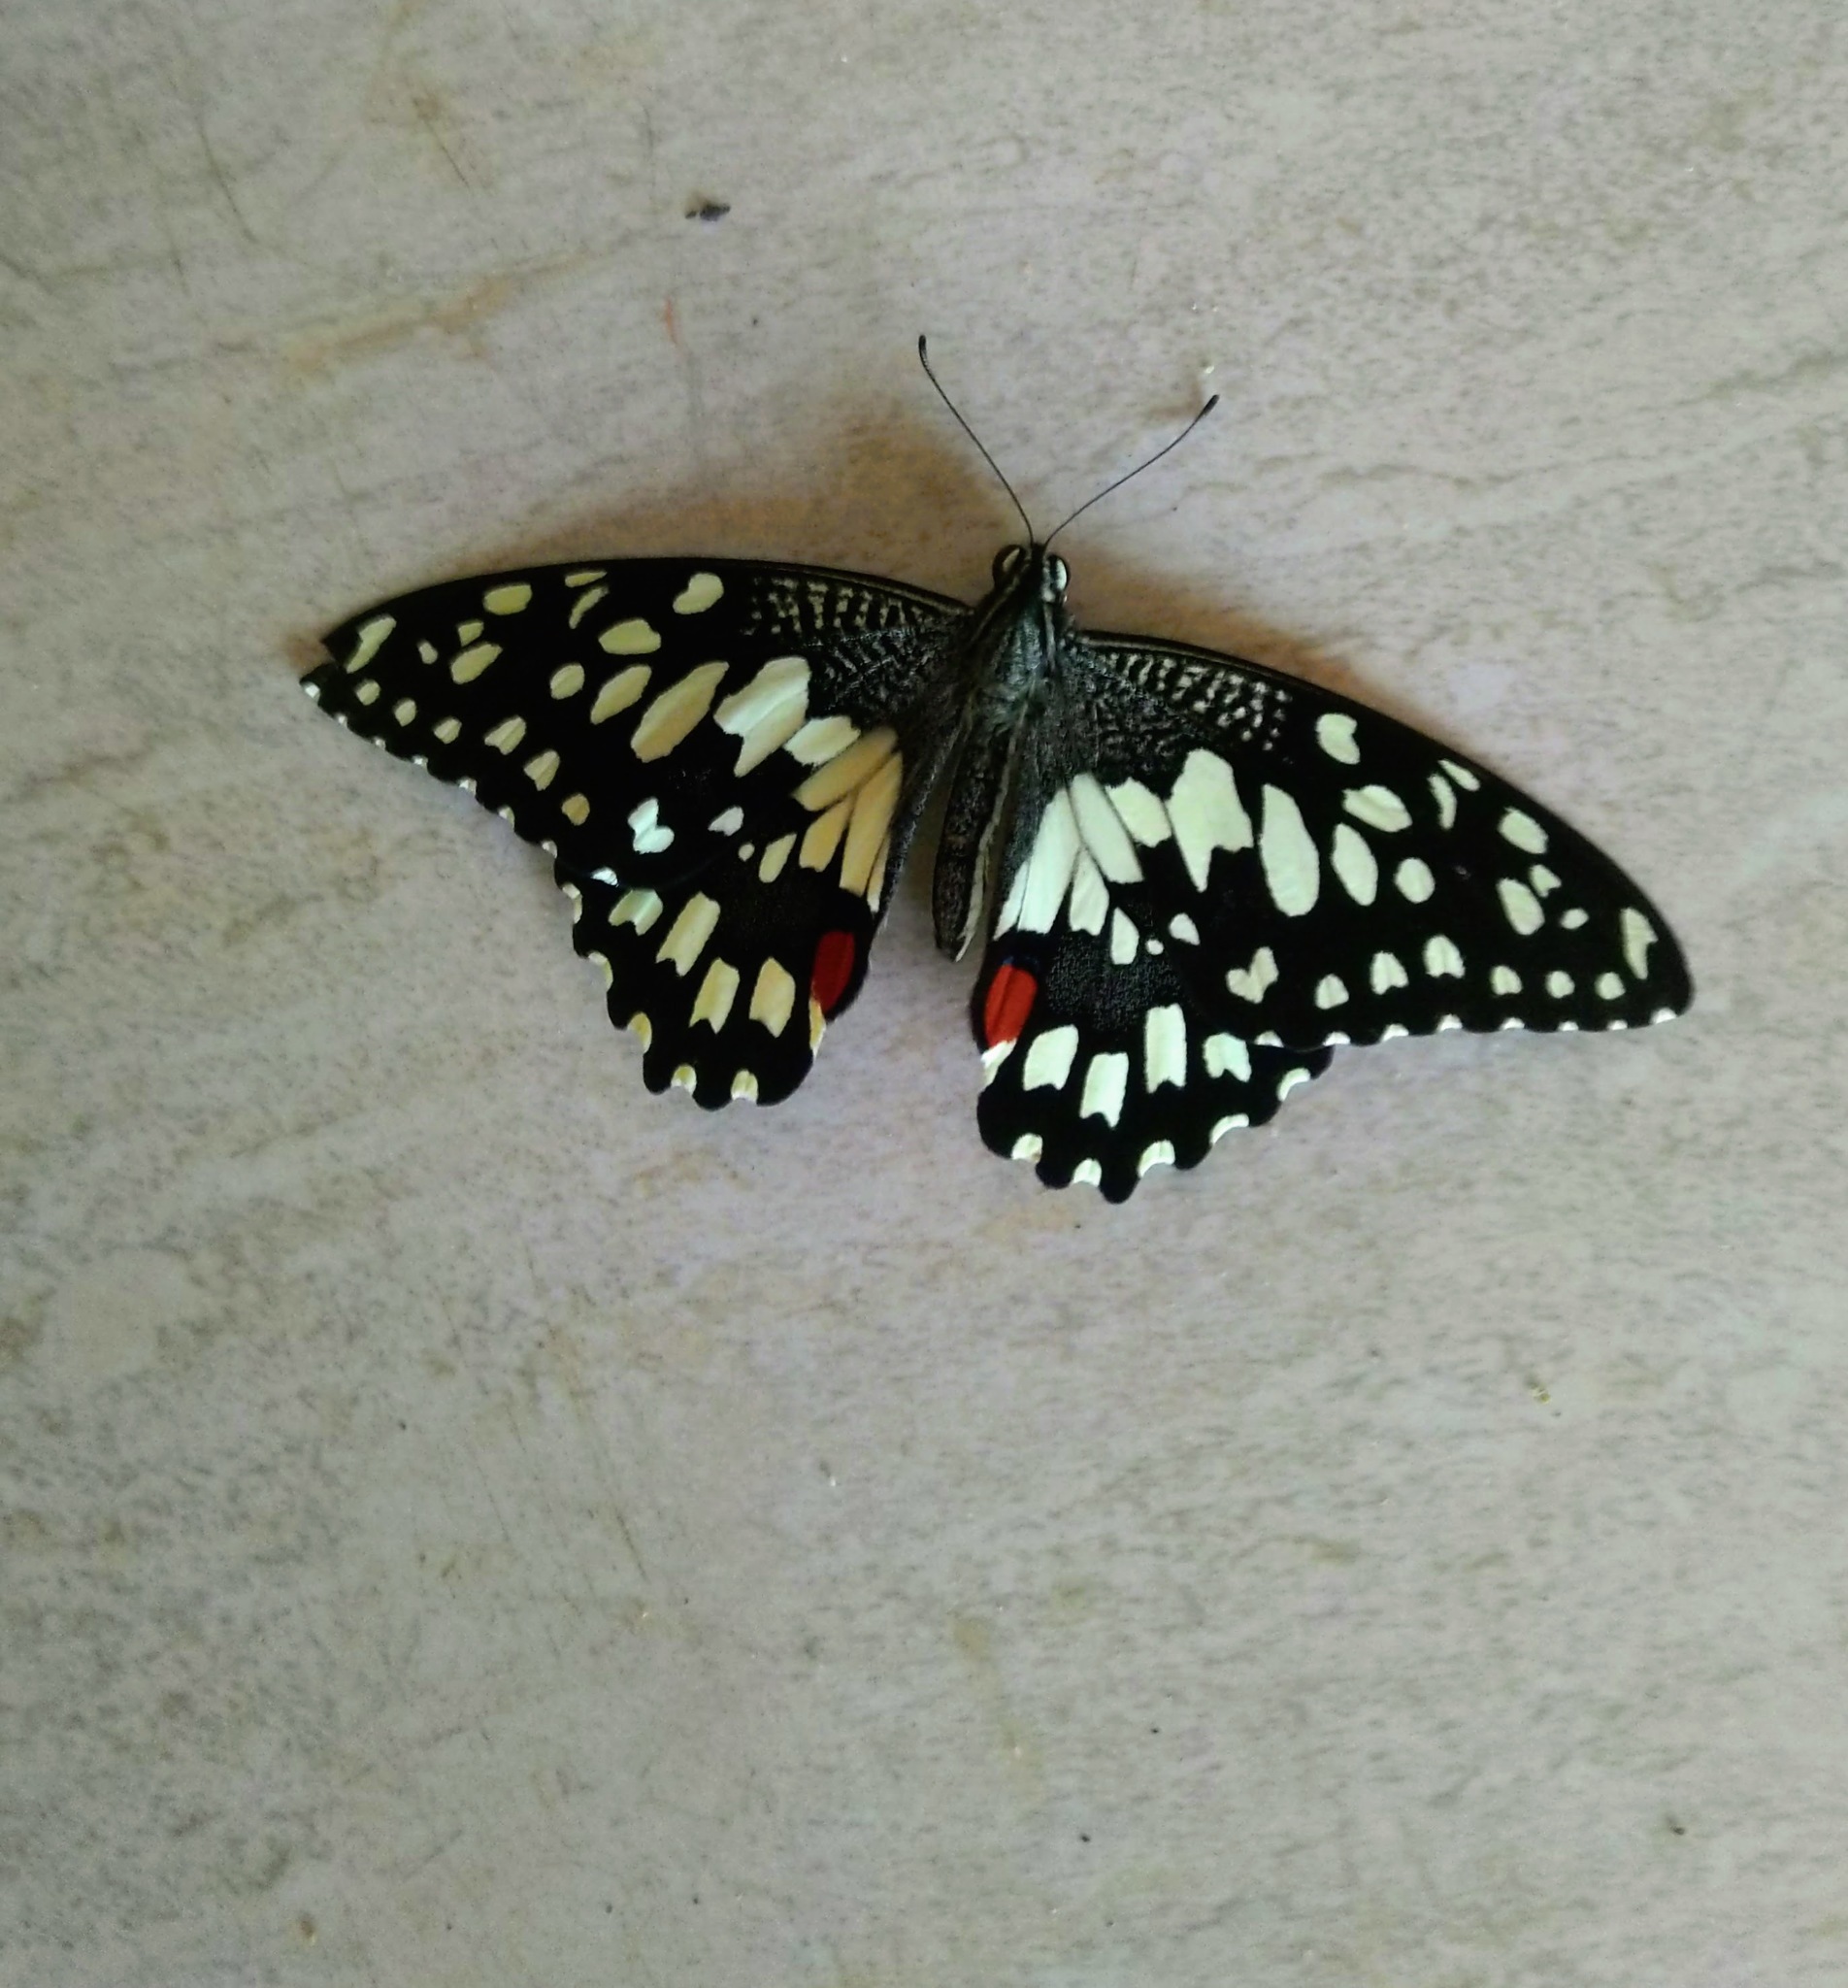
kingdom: Animalia
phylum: Arthropoda
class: Insecta
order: Lepidoptera
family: Papilionidae
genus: Papilio
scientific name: Papilio demoleus
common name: Lime butterfly
